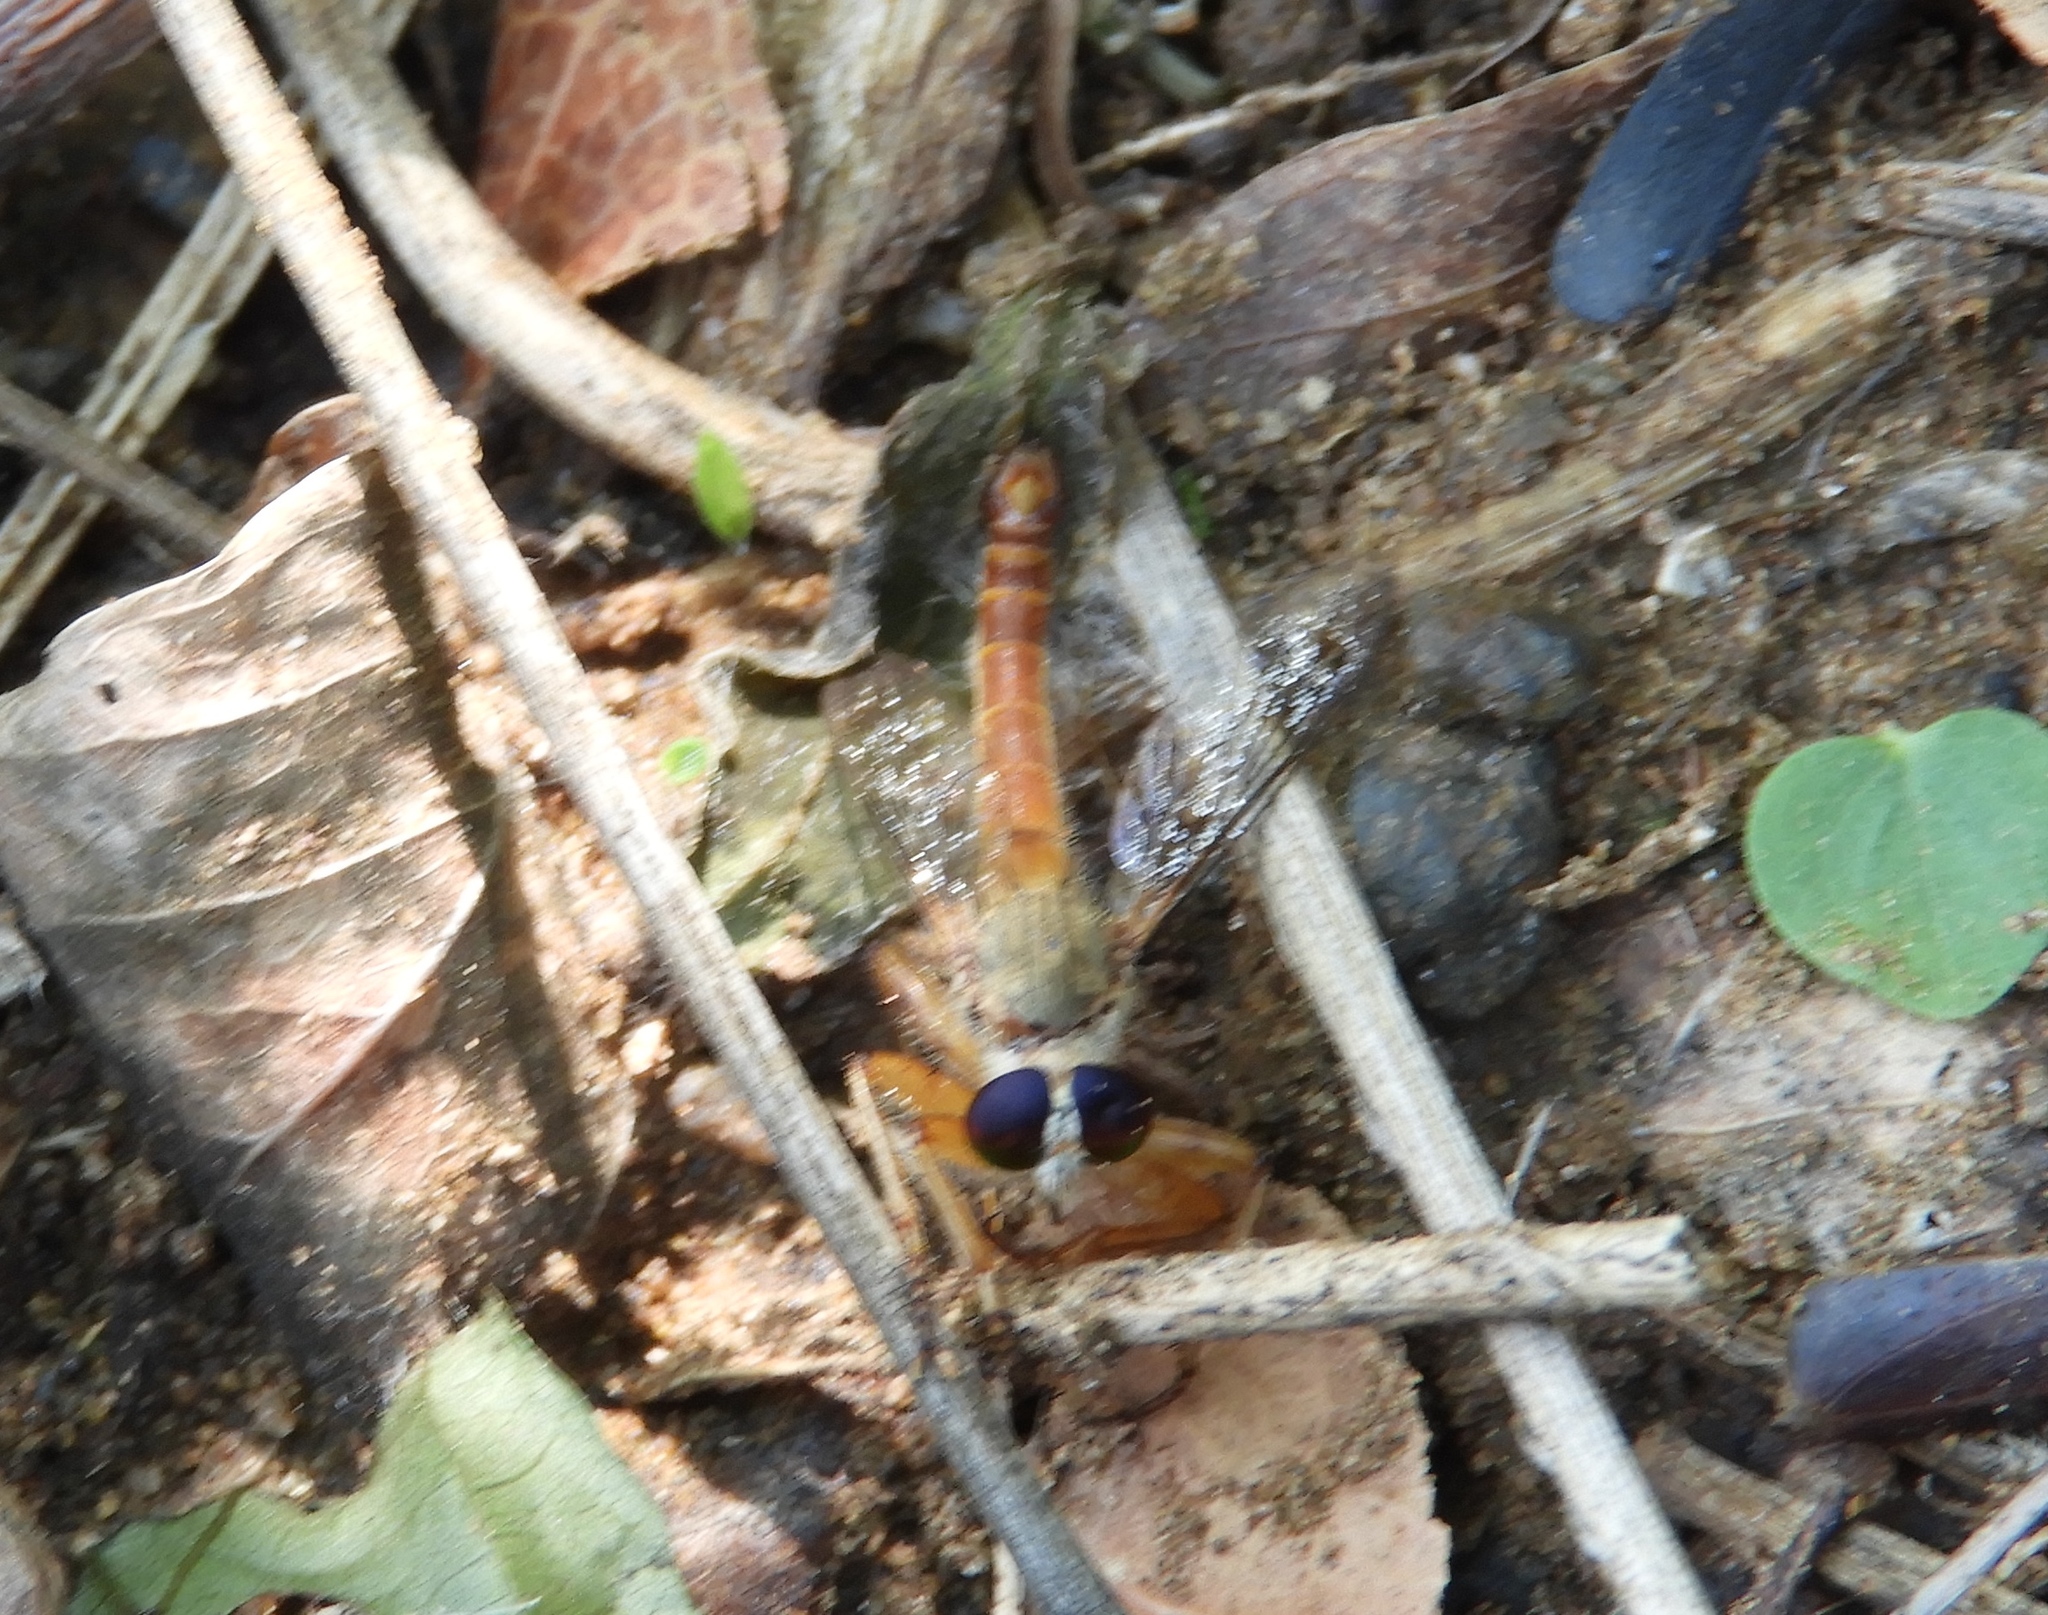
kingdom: Animalia
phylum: Arthropoda
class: Insecta
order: Diptera
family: Asilidae
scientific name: Asilidae
